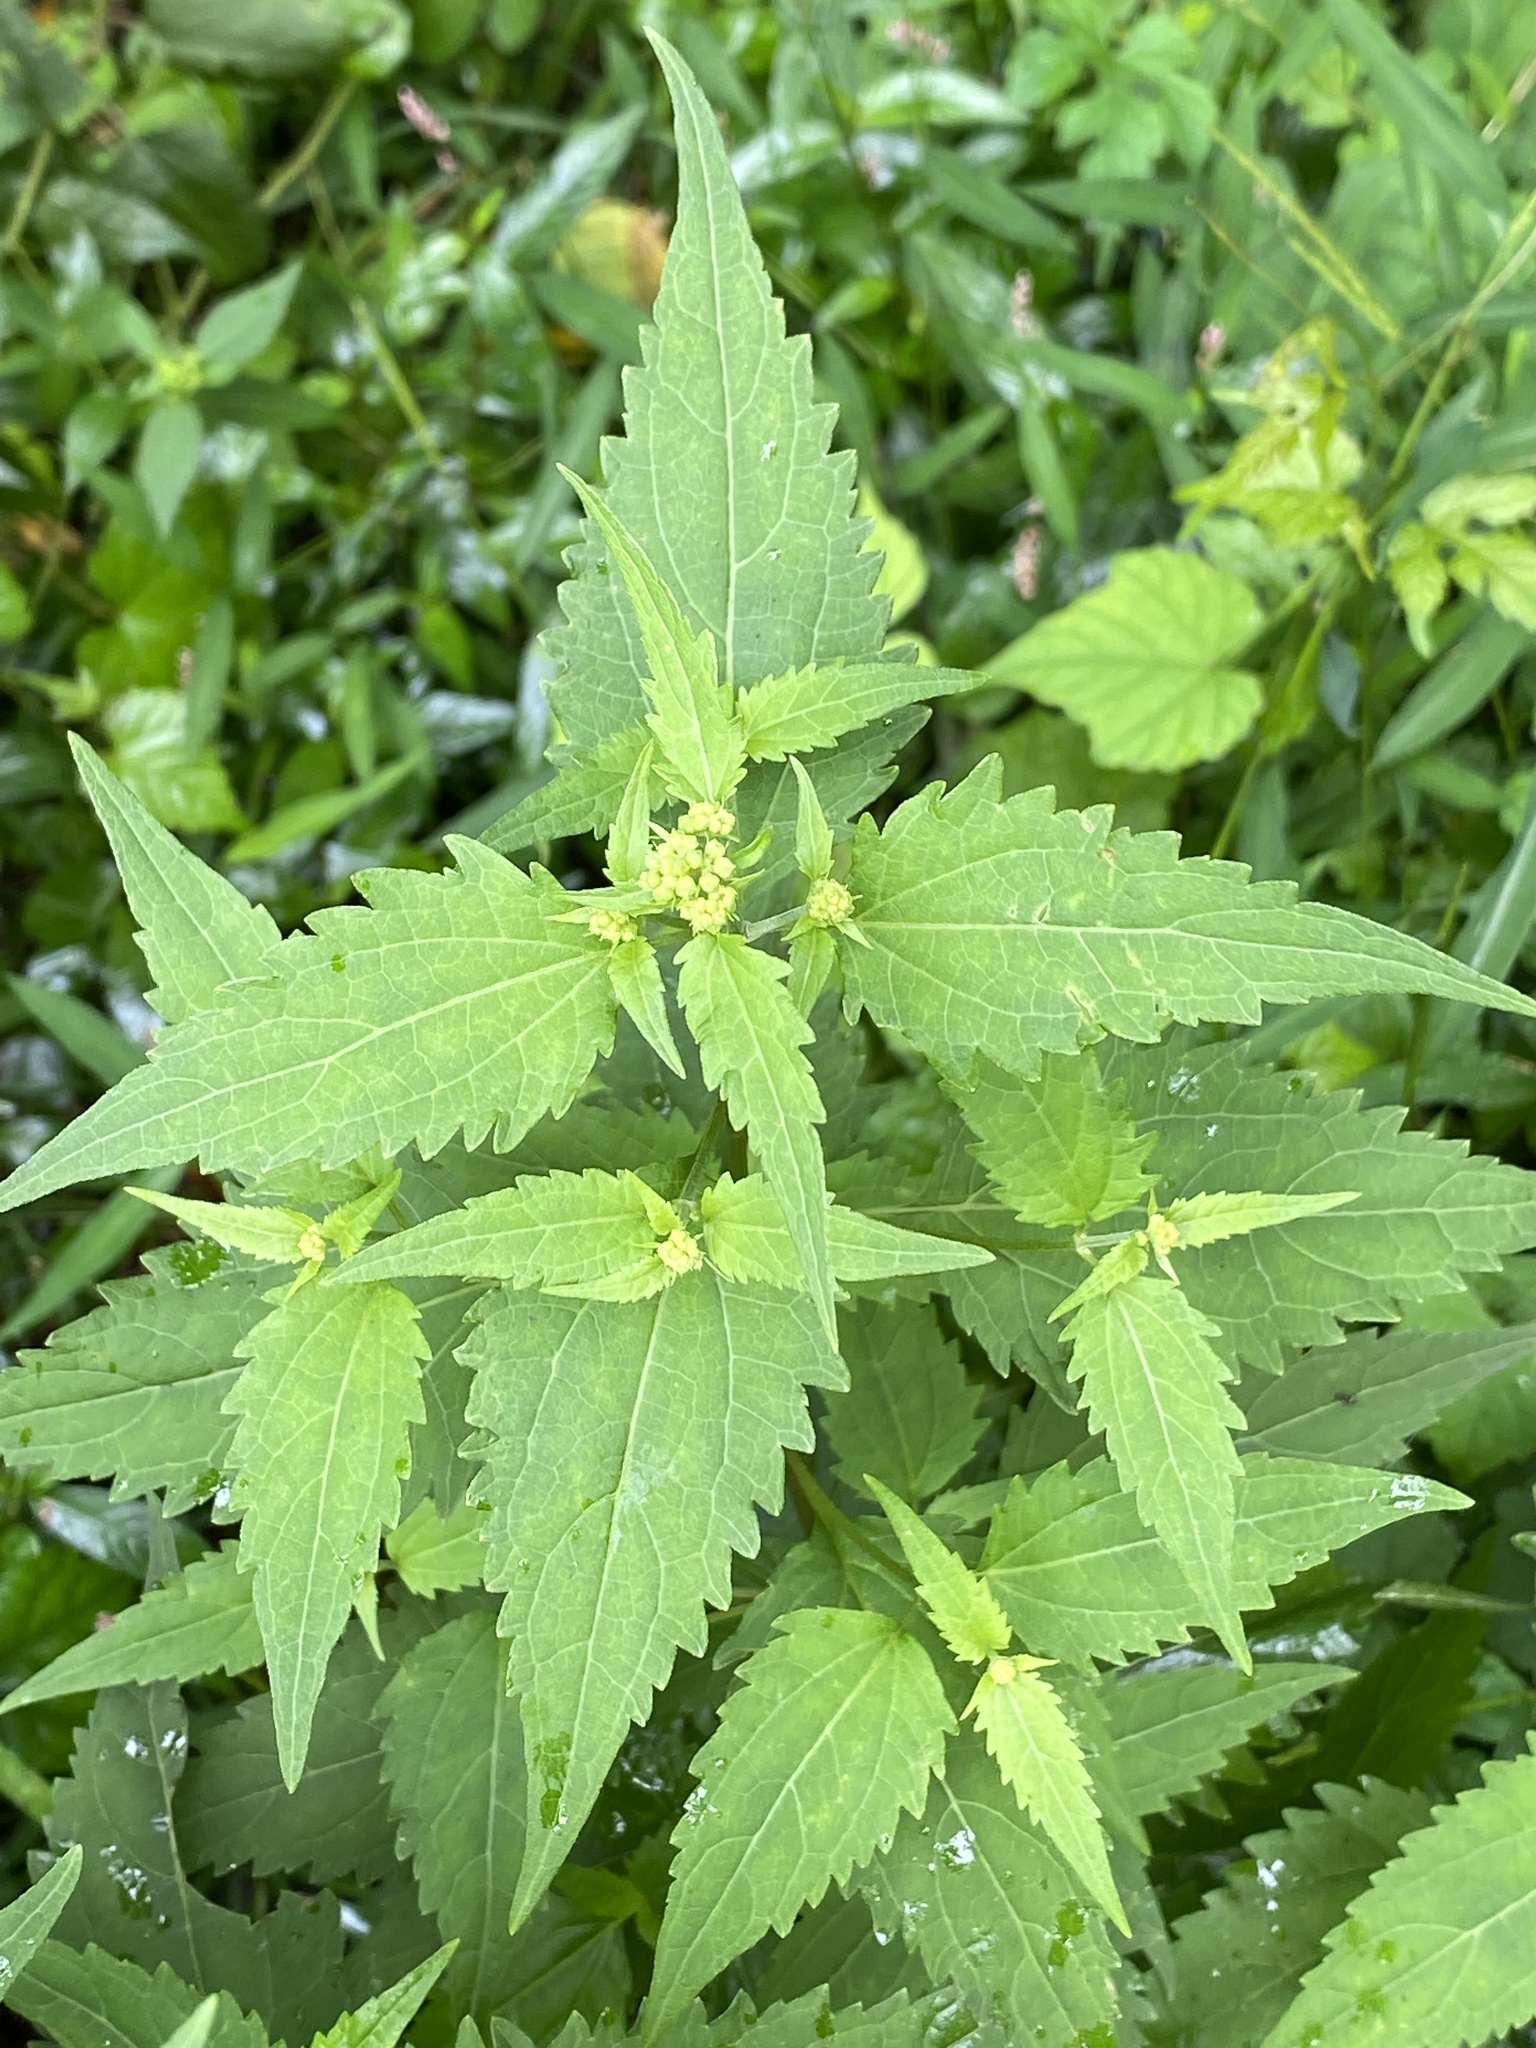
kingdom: Plantae
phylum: Tracheophyta
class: Magnoliopsida
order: Asterales
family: Asteraceae
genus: Ageratina
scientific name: Ageratina altissima
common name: White snakeroot
